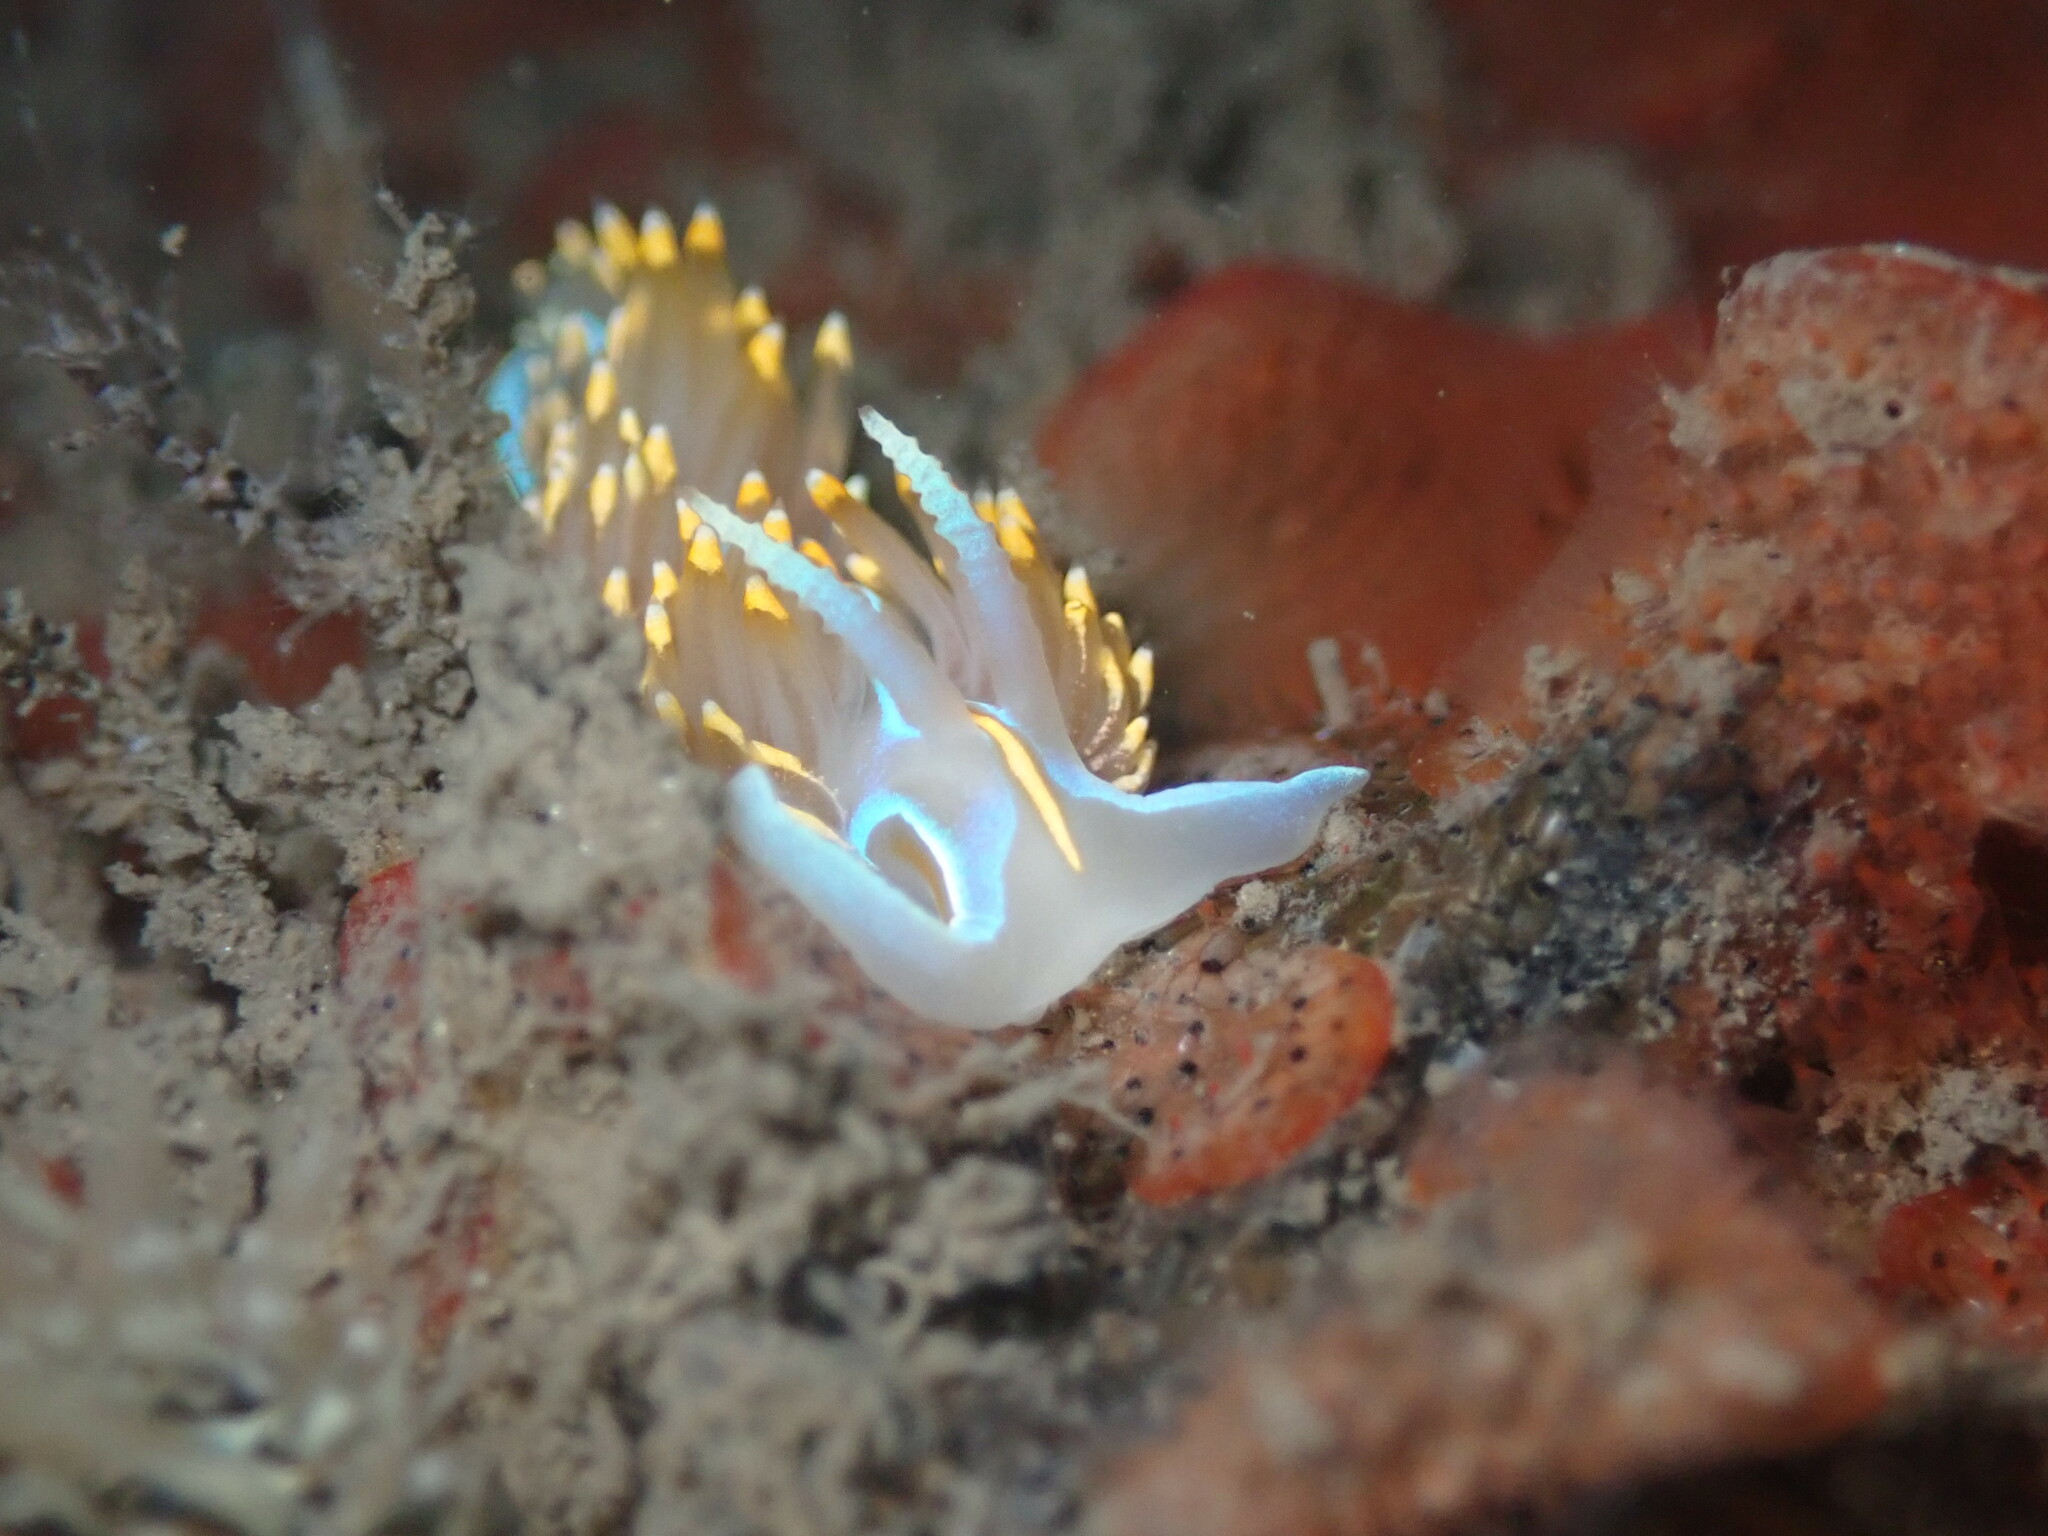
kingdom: Animalia
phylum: Mollusca
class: Gastropoda
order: Nudibranchia
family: Myrrhinidae
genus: Hermissenda
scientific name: Hermissenda opalescens
